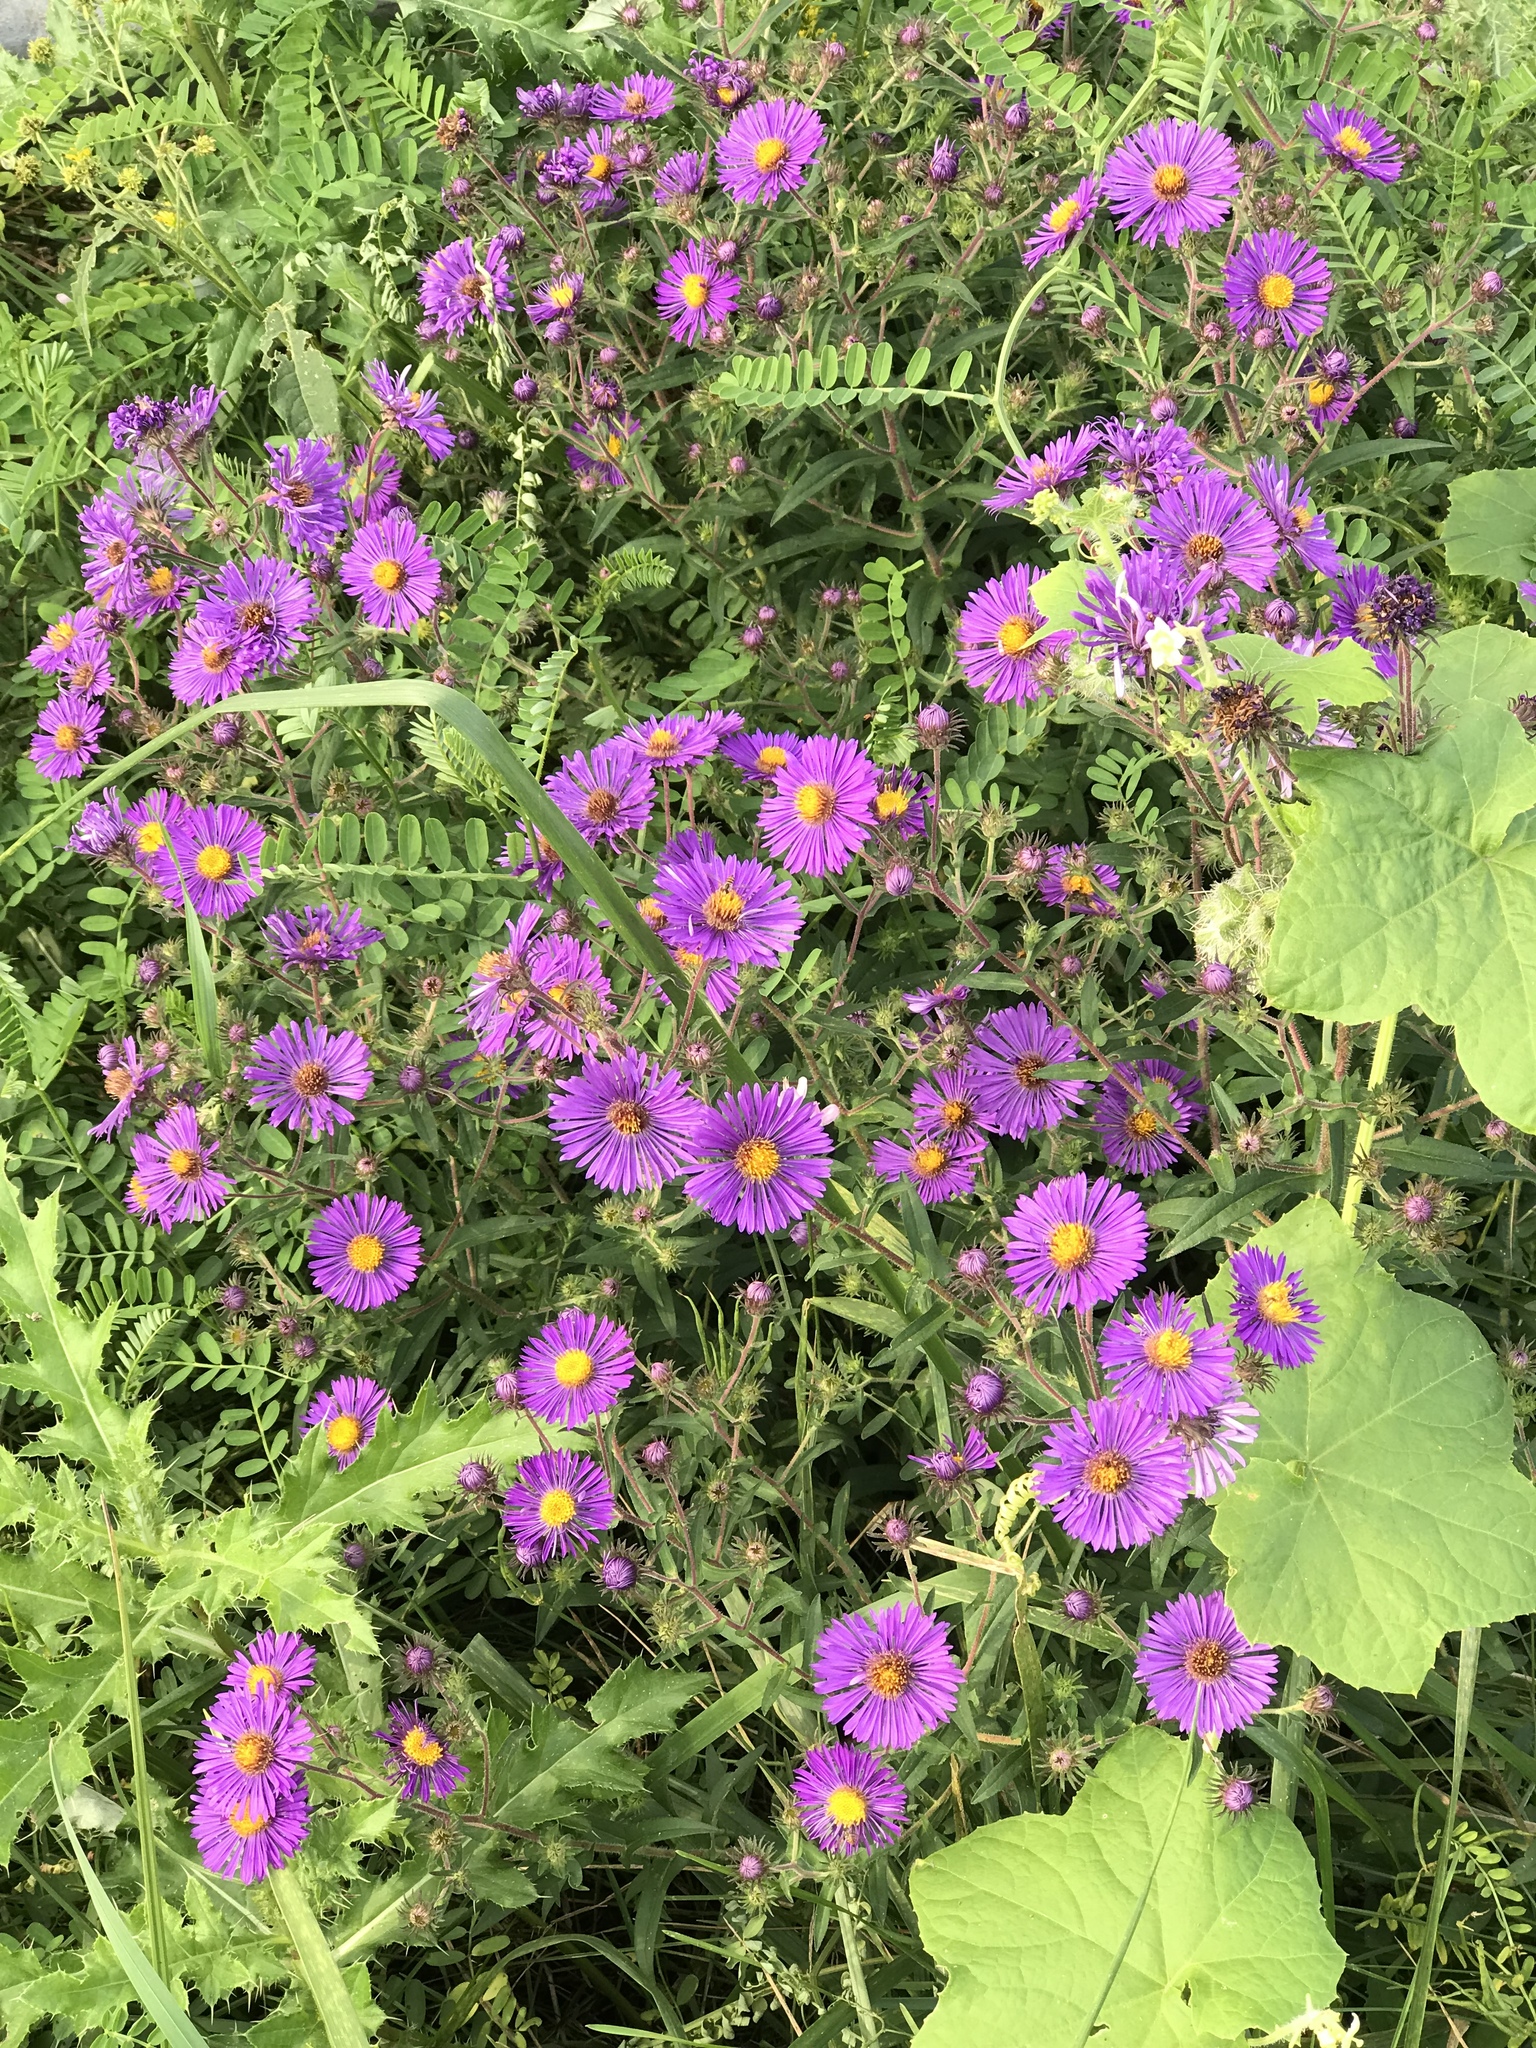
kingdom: Plantae
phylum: Tracheophyta
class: Magnoliopsida
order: Asterales
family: Asteraceae
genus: Symphyotrichum
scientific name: Symphyotrichum novae-angliae
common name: Michaelmas daisy
